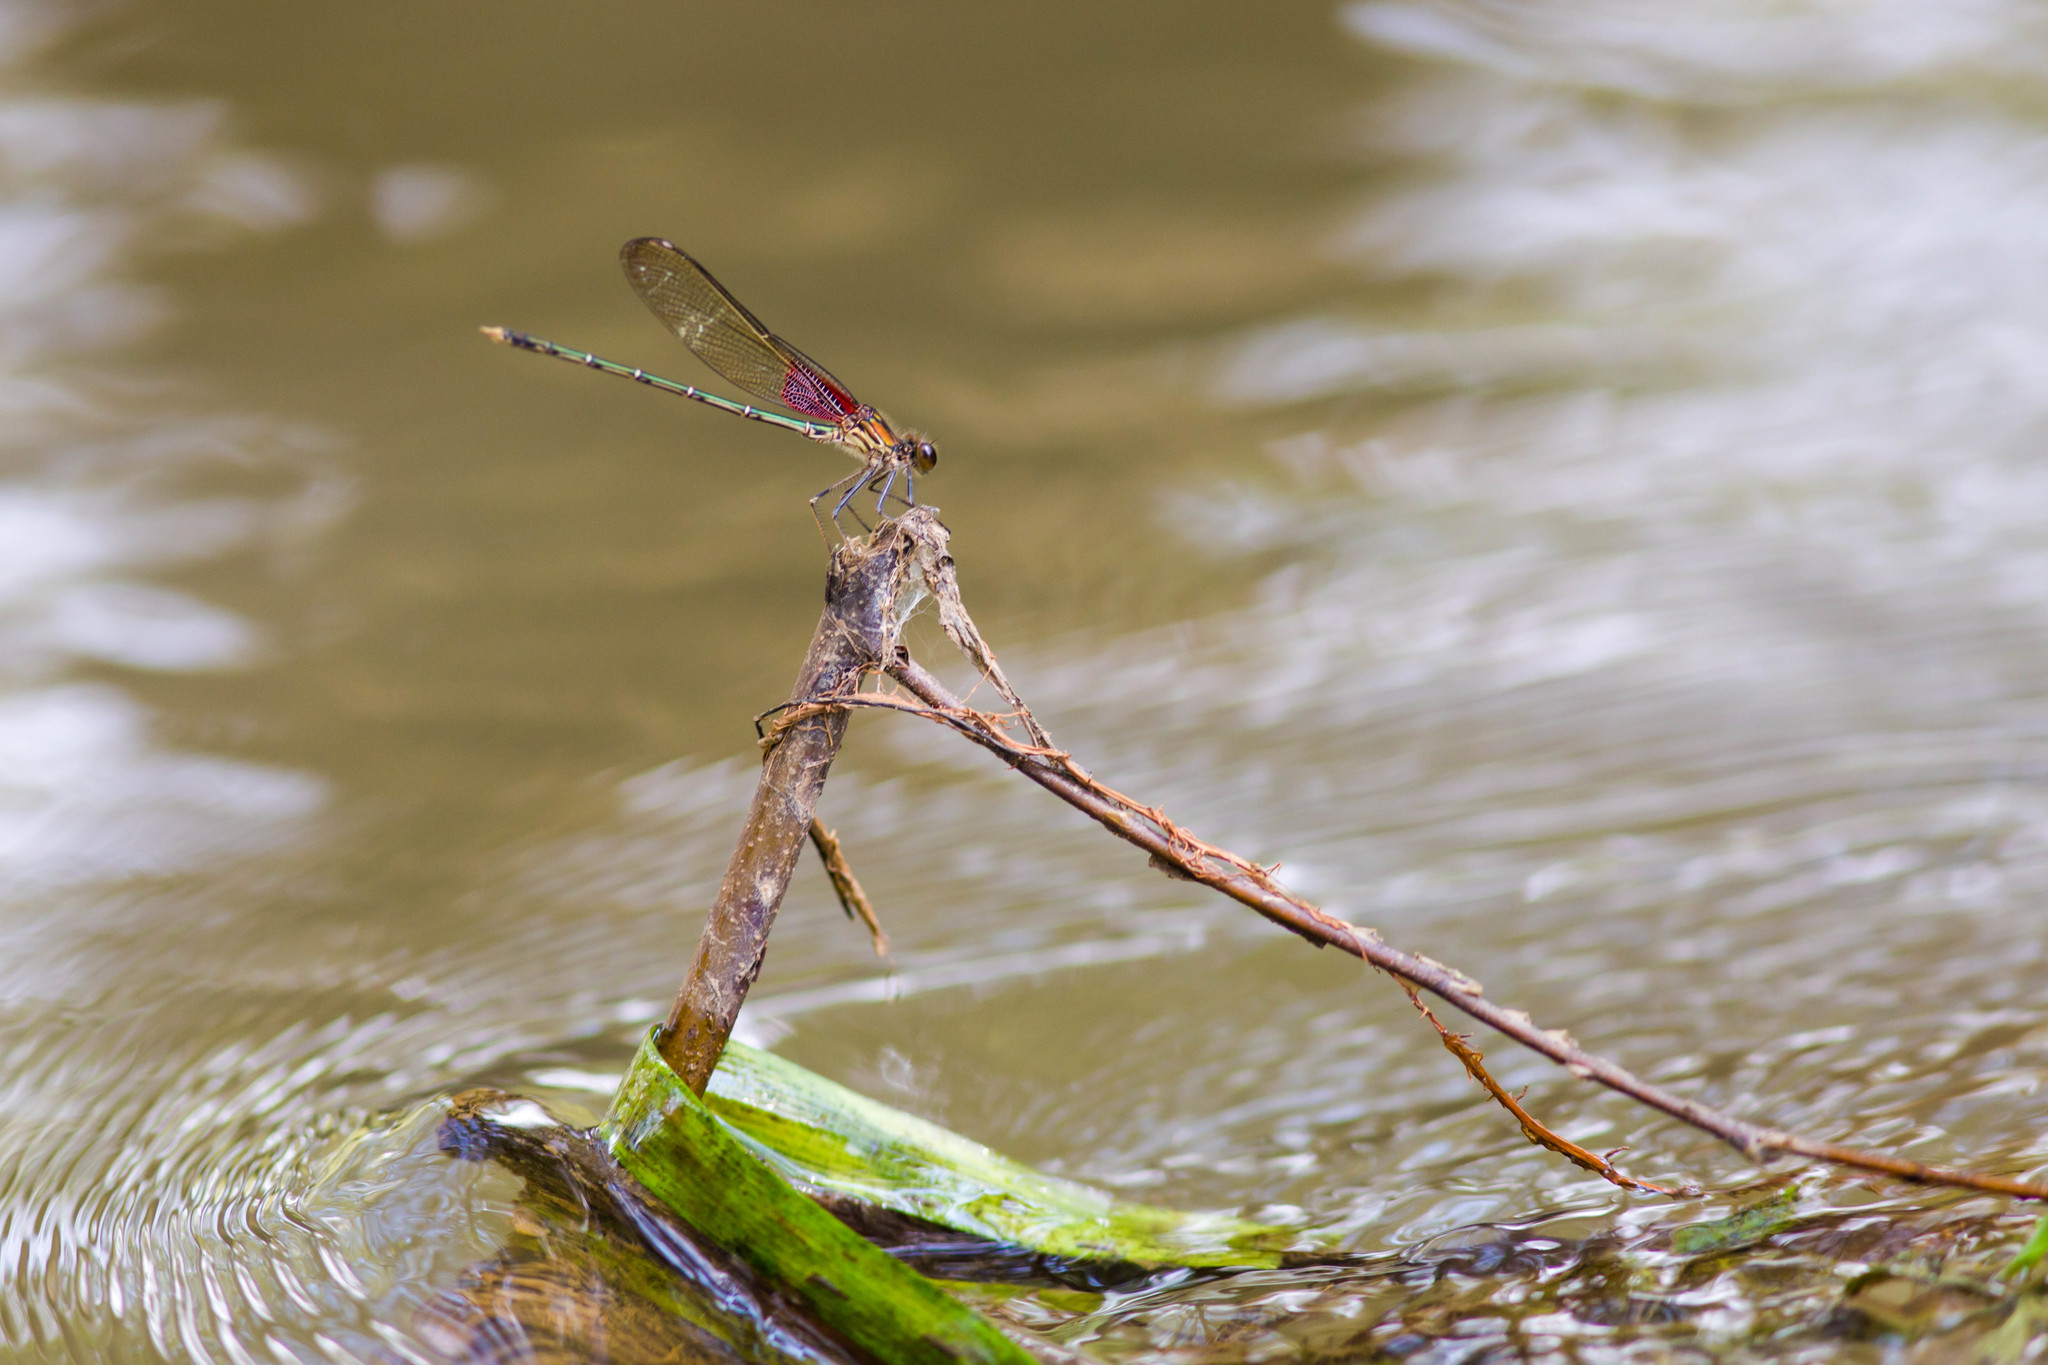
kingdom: Animalia
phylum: Arthropoda
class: Insecta
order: Odonata
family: Calopterygidae
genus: Hetaerina
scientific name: Hetaerina americana
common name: American rubyspot
